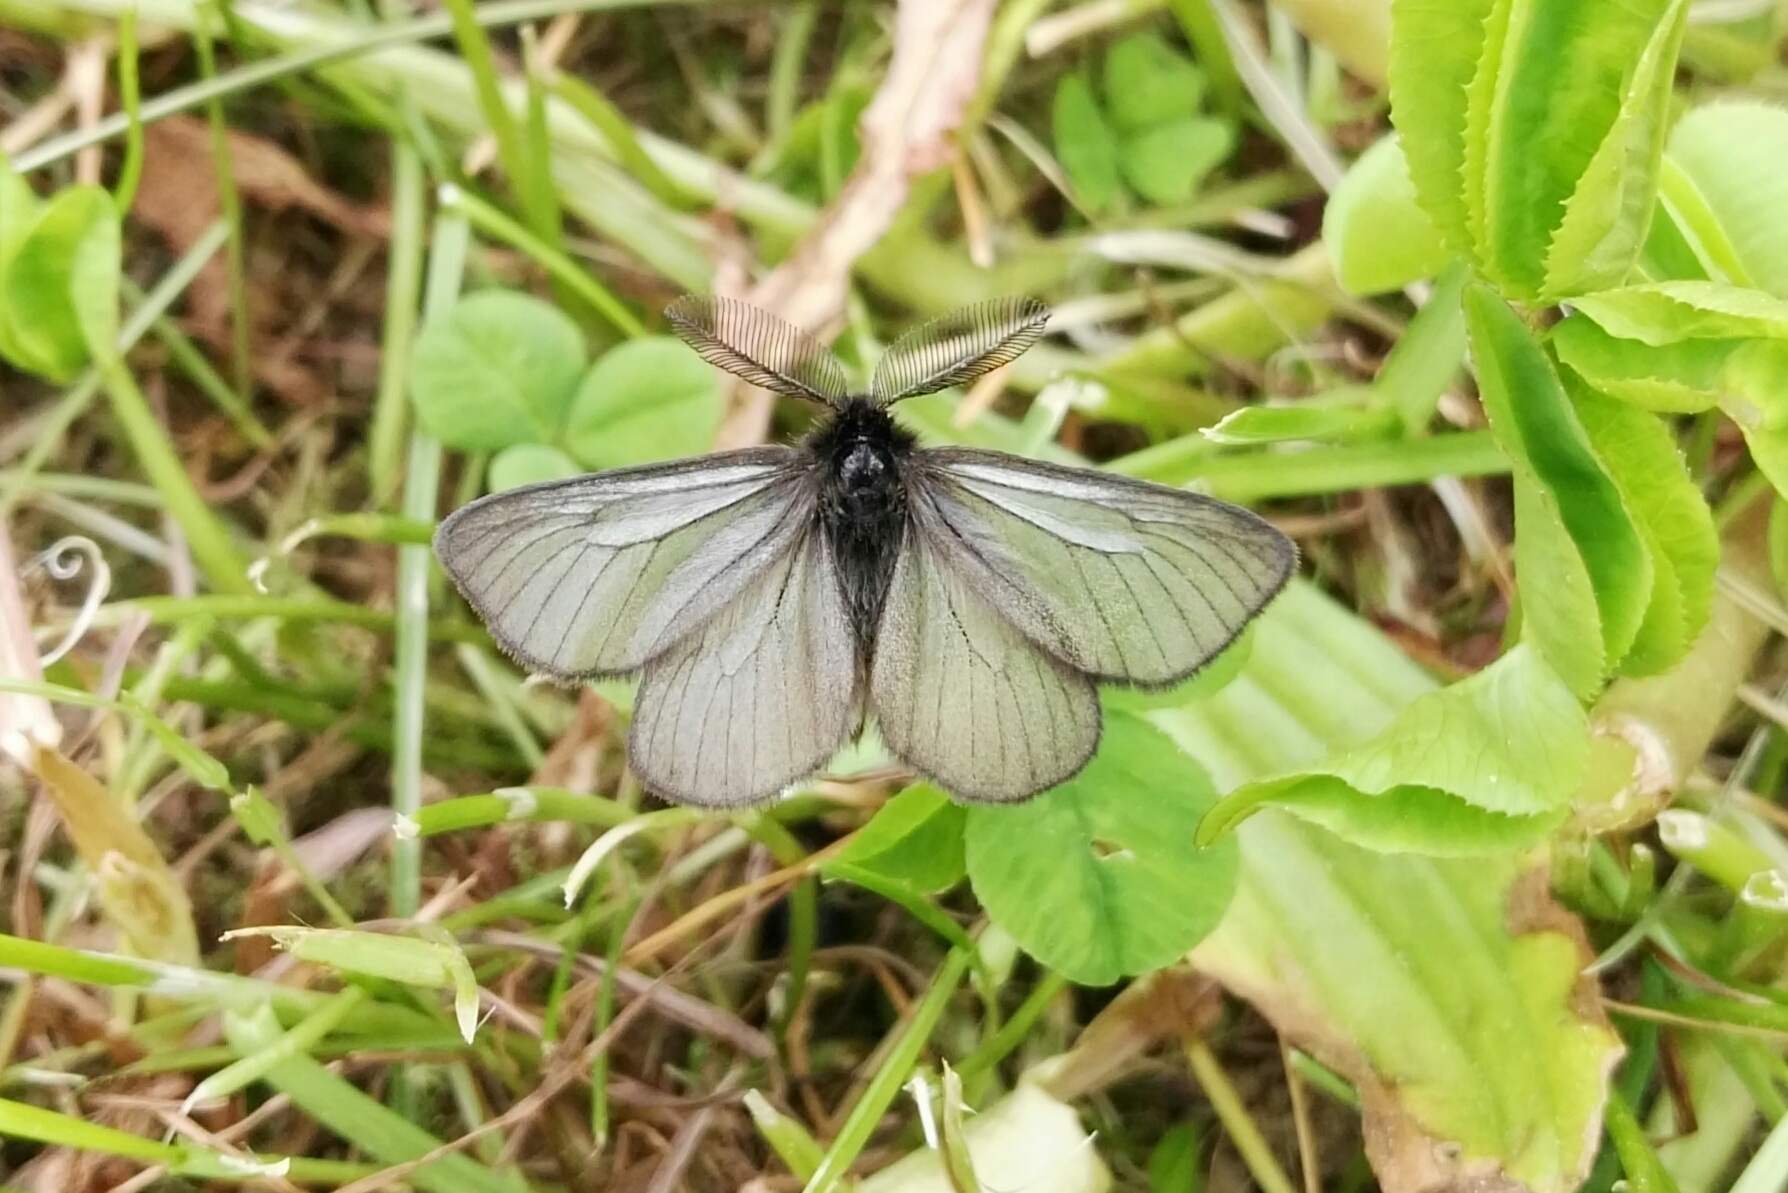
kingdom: Animalia
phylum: Arthropoda
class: Insecta
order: Lepidoptera
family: Erebidae
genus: Penthophera
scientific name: Penthophera morio
